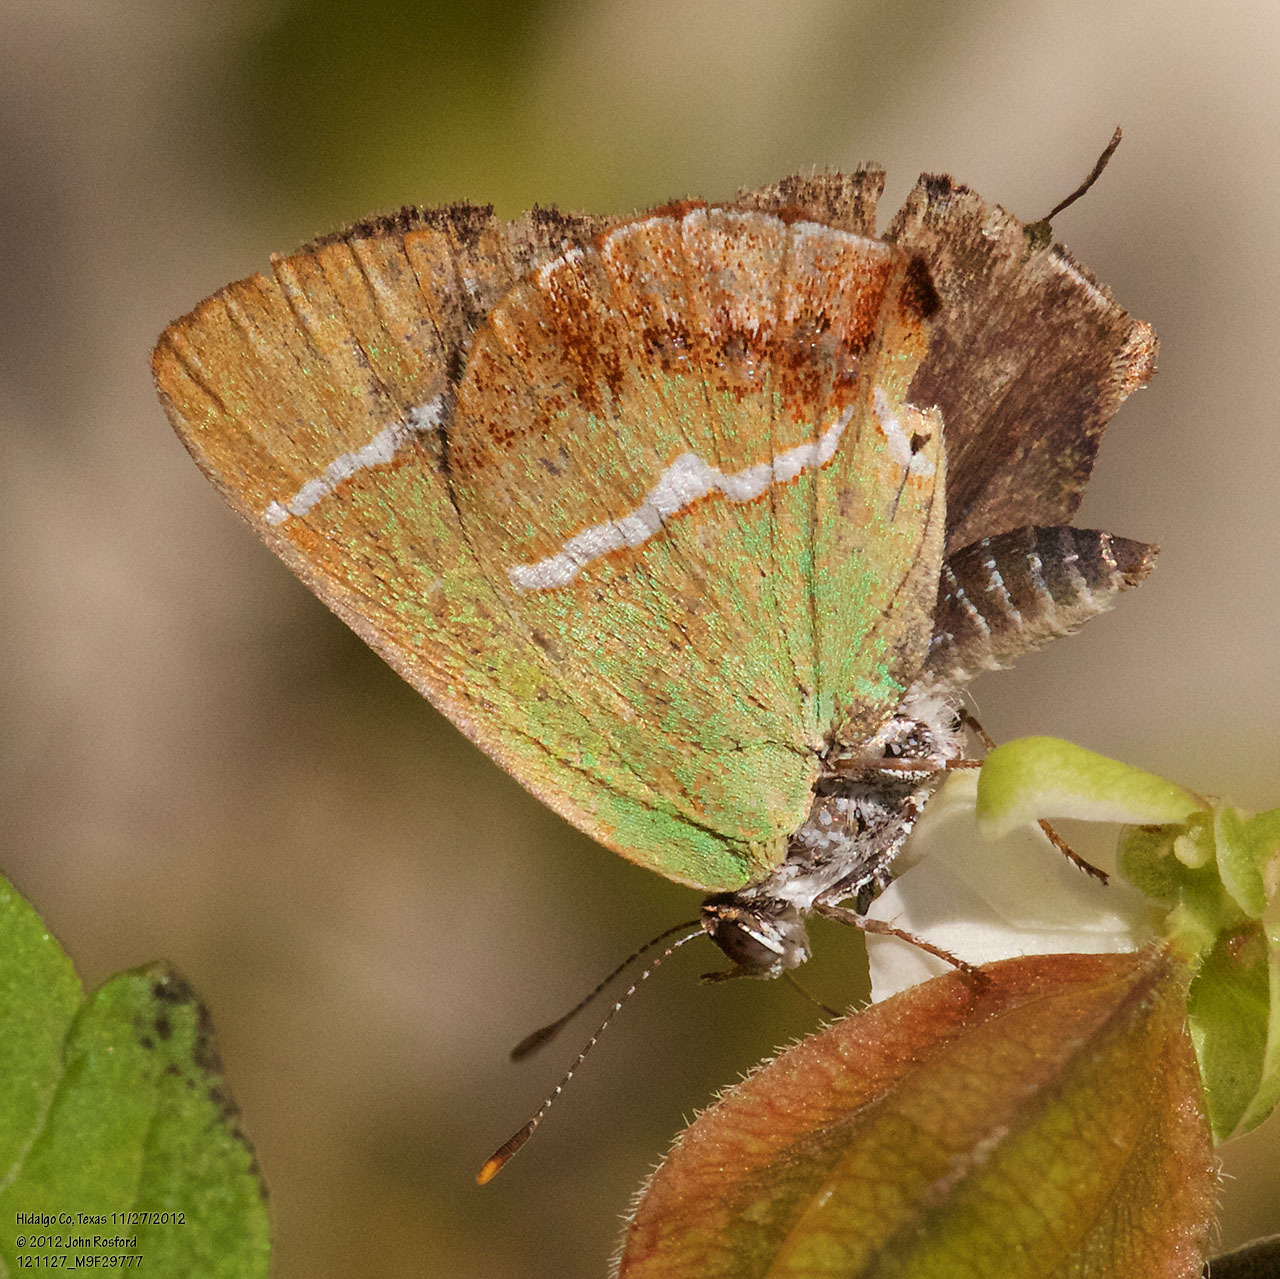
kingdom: Animalia
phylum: Arthropoda
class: Insecta
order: Lepidoptera
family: Lycaenidae
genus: Chlorostrymon
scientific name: Chlorostrymon simaethis
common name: Silver-banded hairstreak
